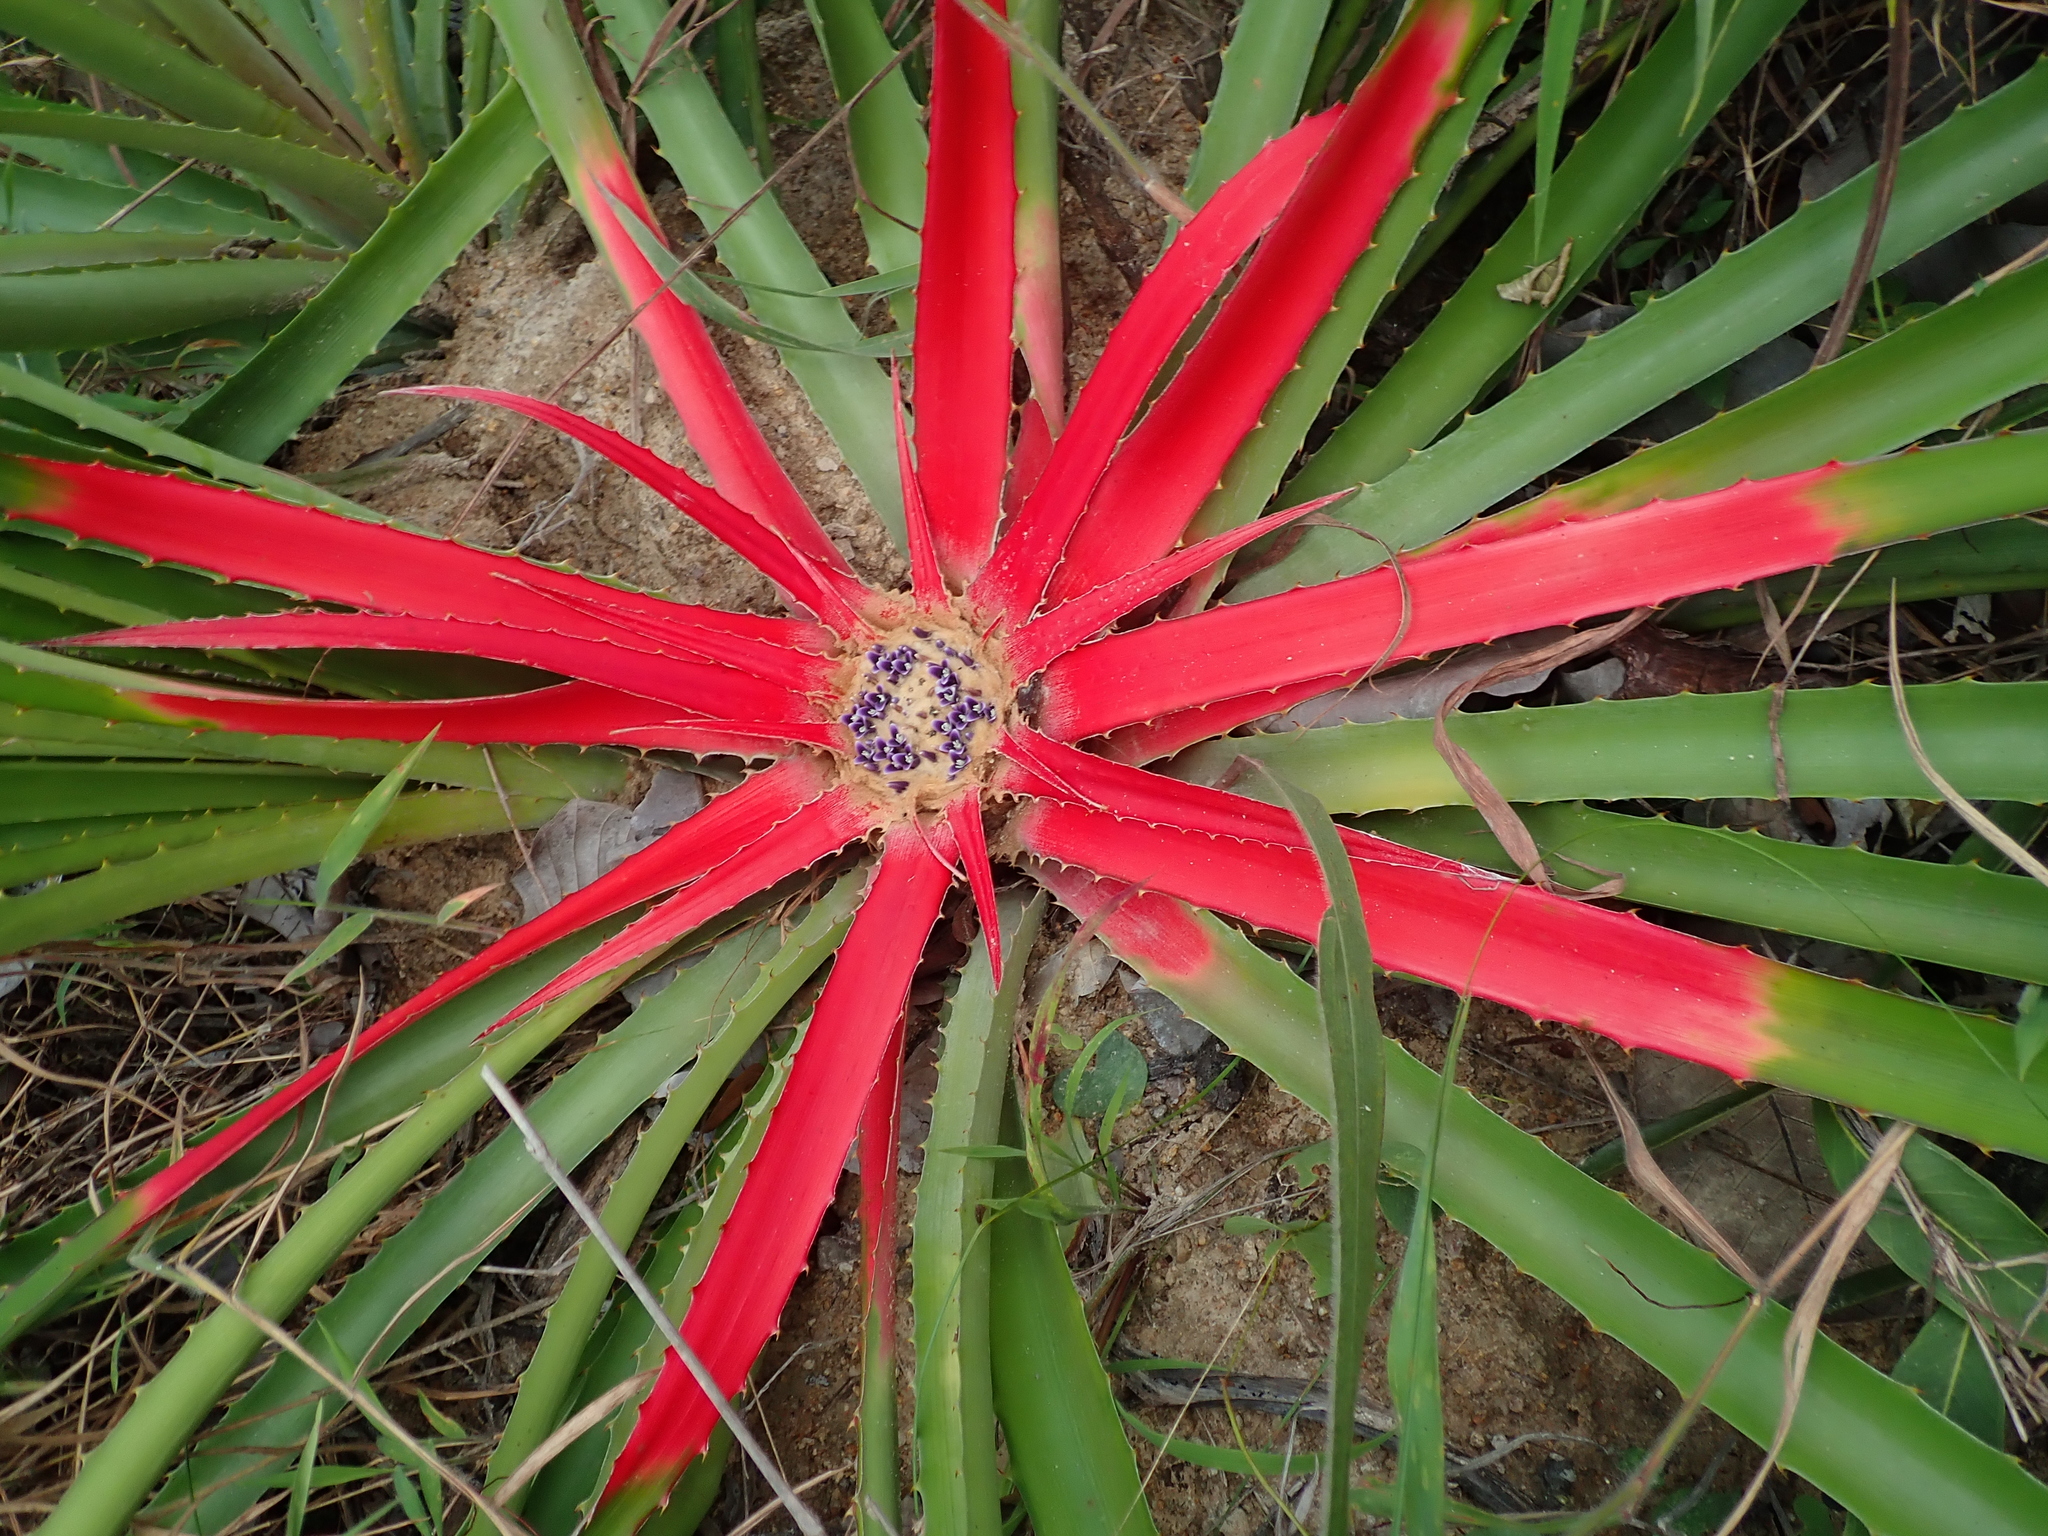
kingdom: Plantae
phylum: Tracheophyta
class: Liliopsida
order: Poales
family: Bromeliaceae
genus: Bromelia
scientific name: Bromelia villosa
